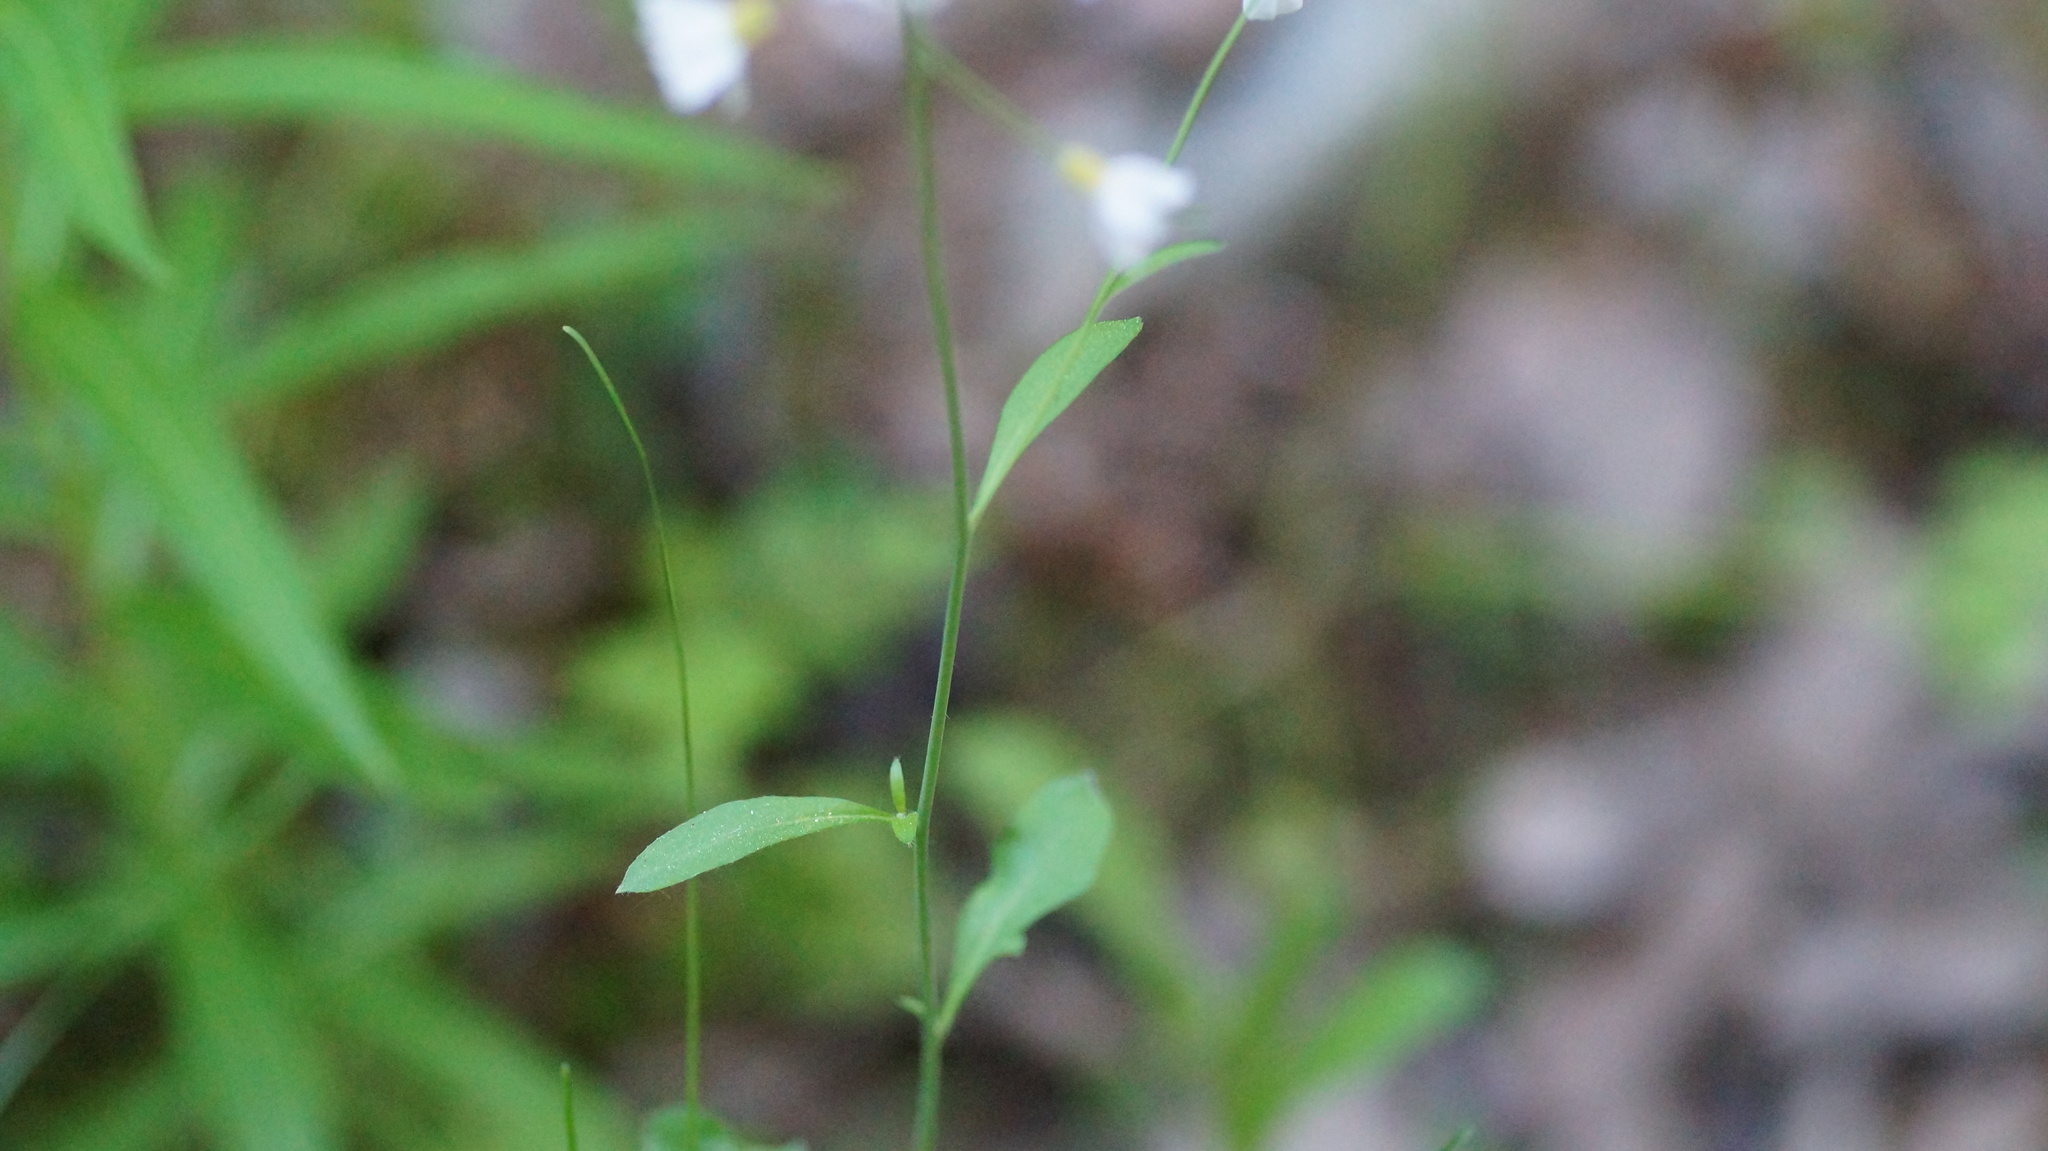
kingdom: Plantae
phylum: Tracheophyta
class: Magnoliopsida
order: Brassicales
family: Brassicaceae
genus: Arabidopsis
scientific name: Arabidopsis arenosa
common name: Sand rock-cress
